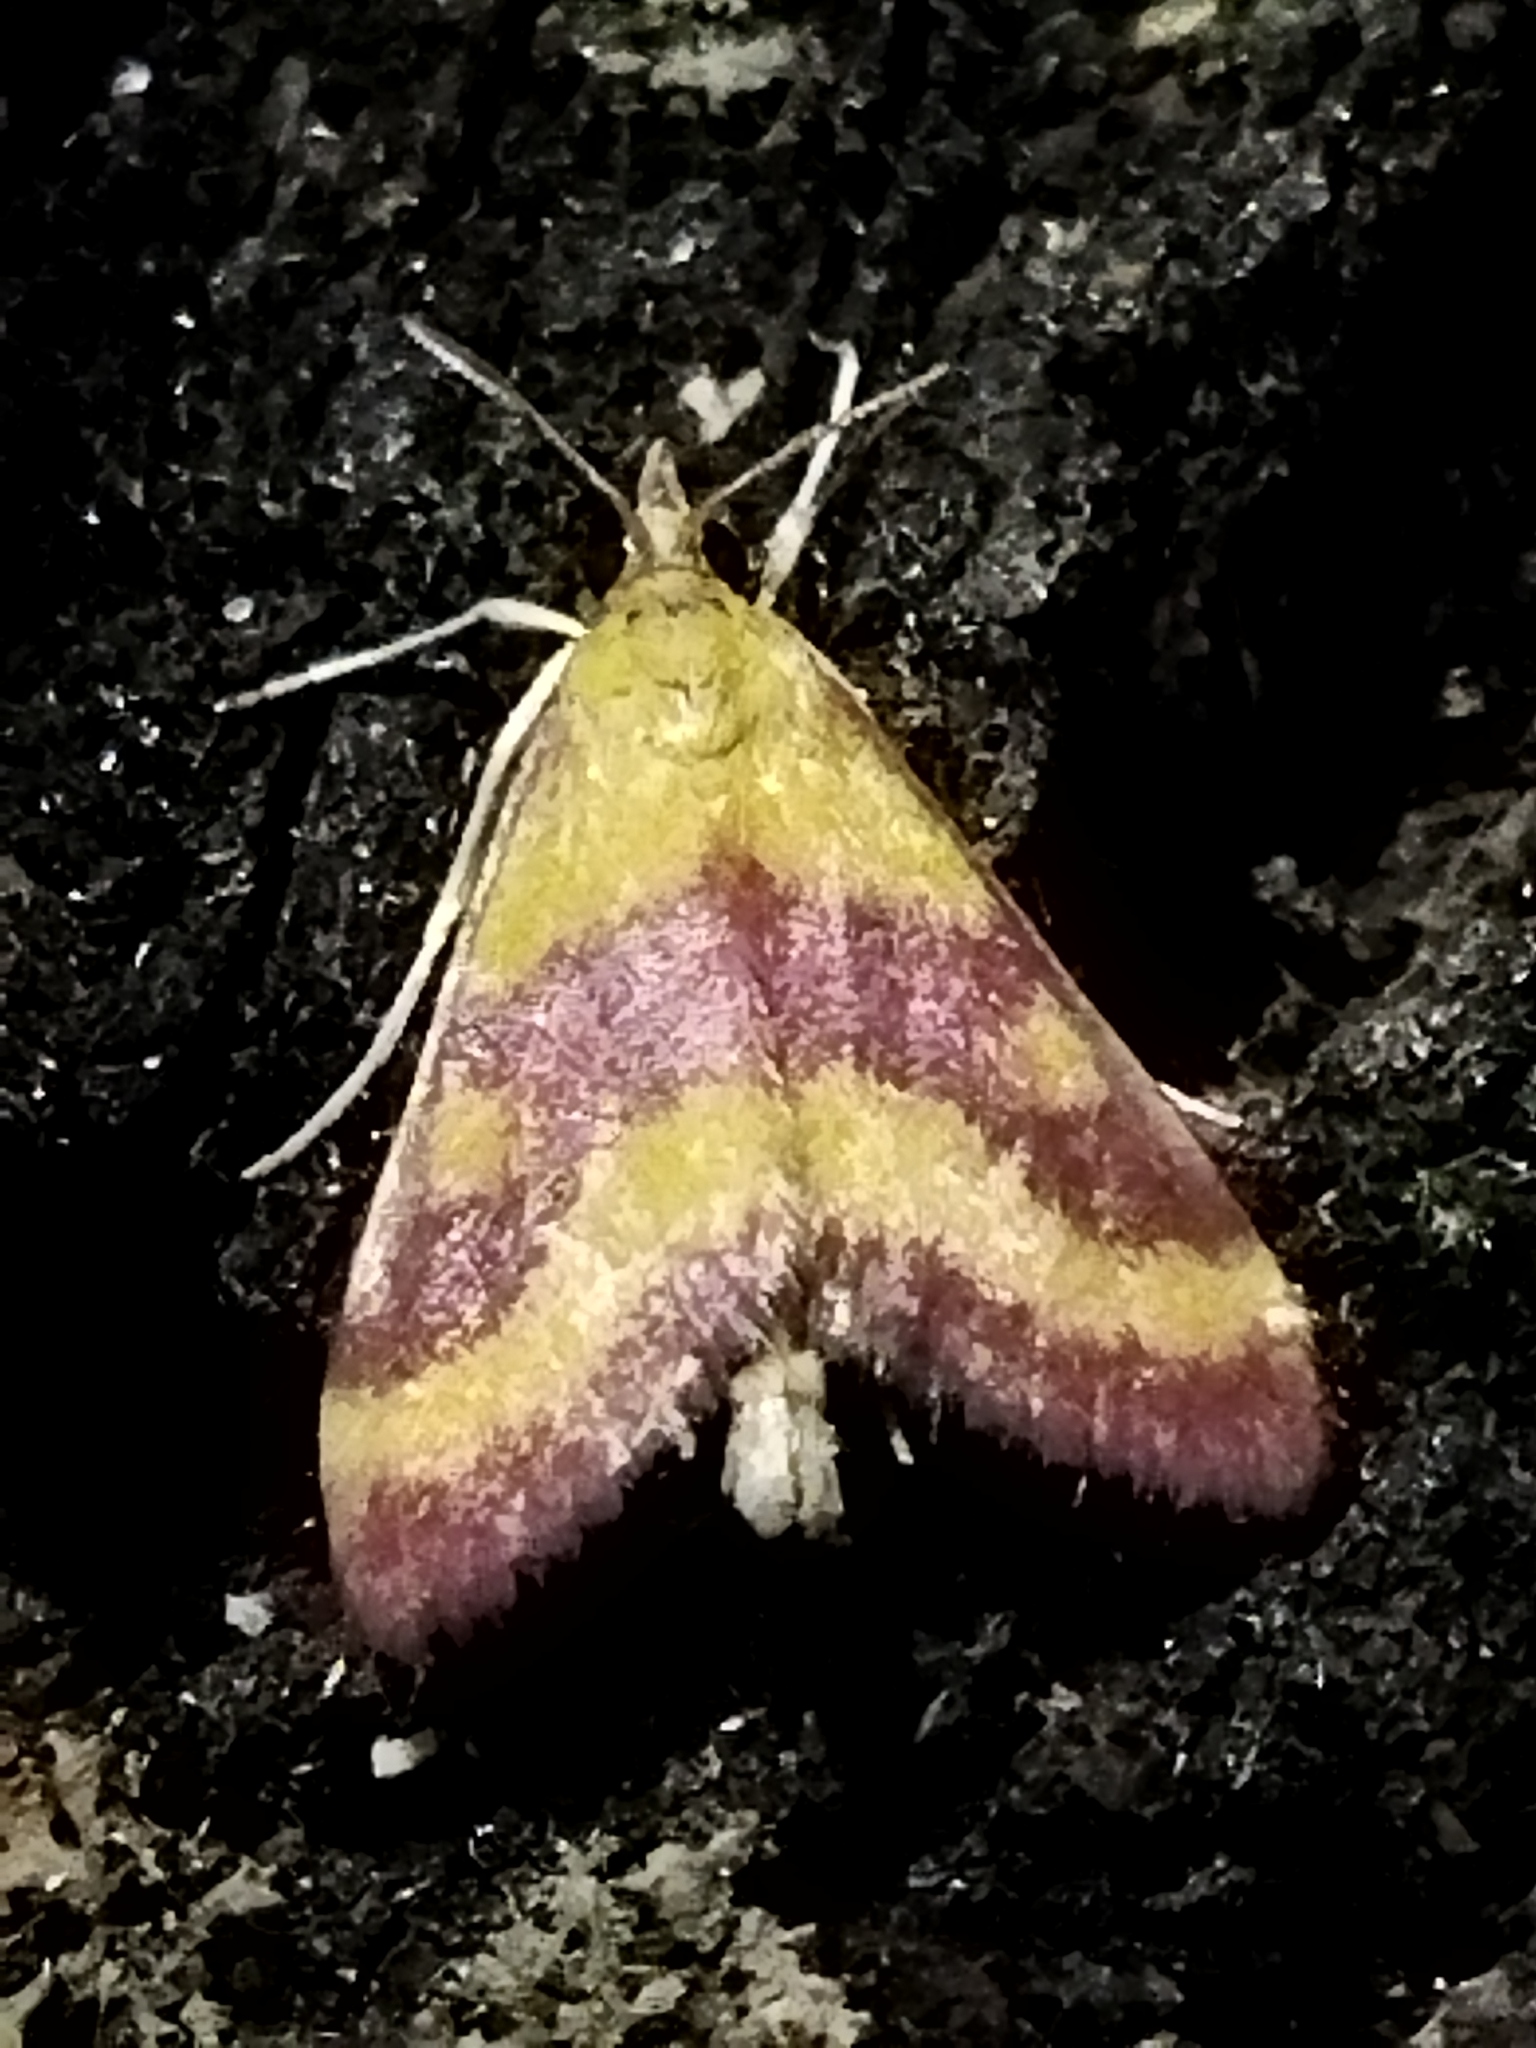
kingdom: Animalia
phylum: Arthropoda
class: Insecta
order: Lepidoptera
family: Crambidae
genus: Pyrausta
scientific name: Pyrausta sanguinalis
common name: Scarce crimson and gold
